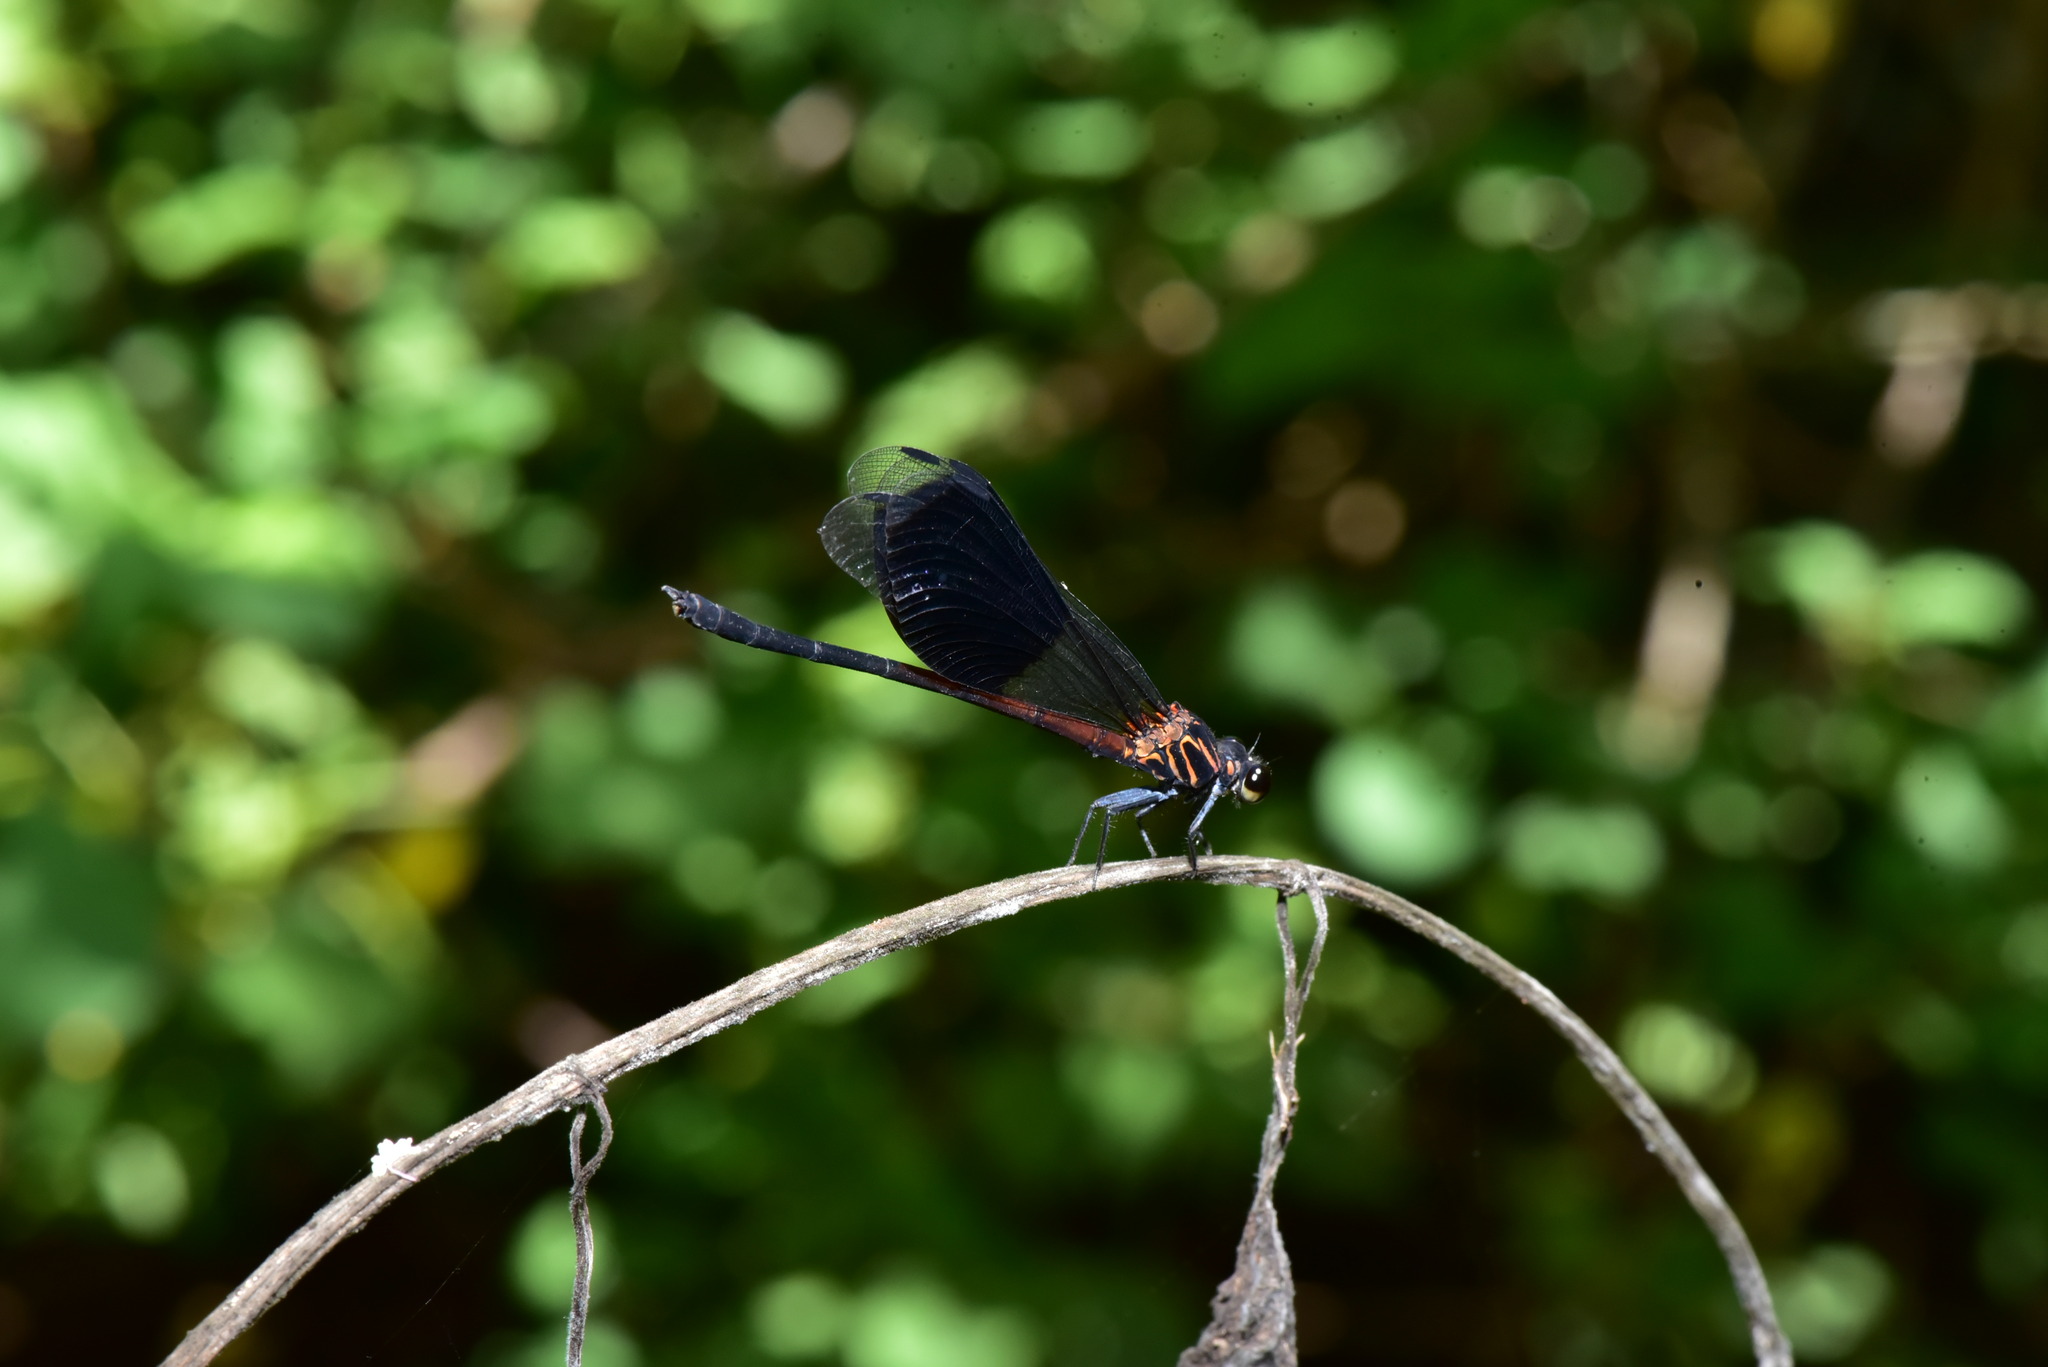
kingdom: Animalia
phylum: Arthropoda
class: Insecta
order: Odonata
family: Euphaeidae
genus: Euphaea
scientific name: Euphaea formosa
